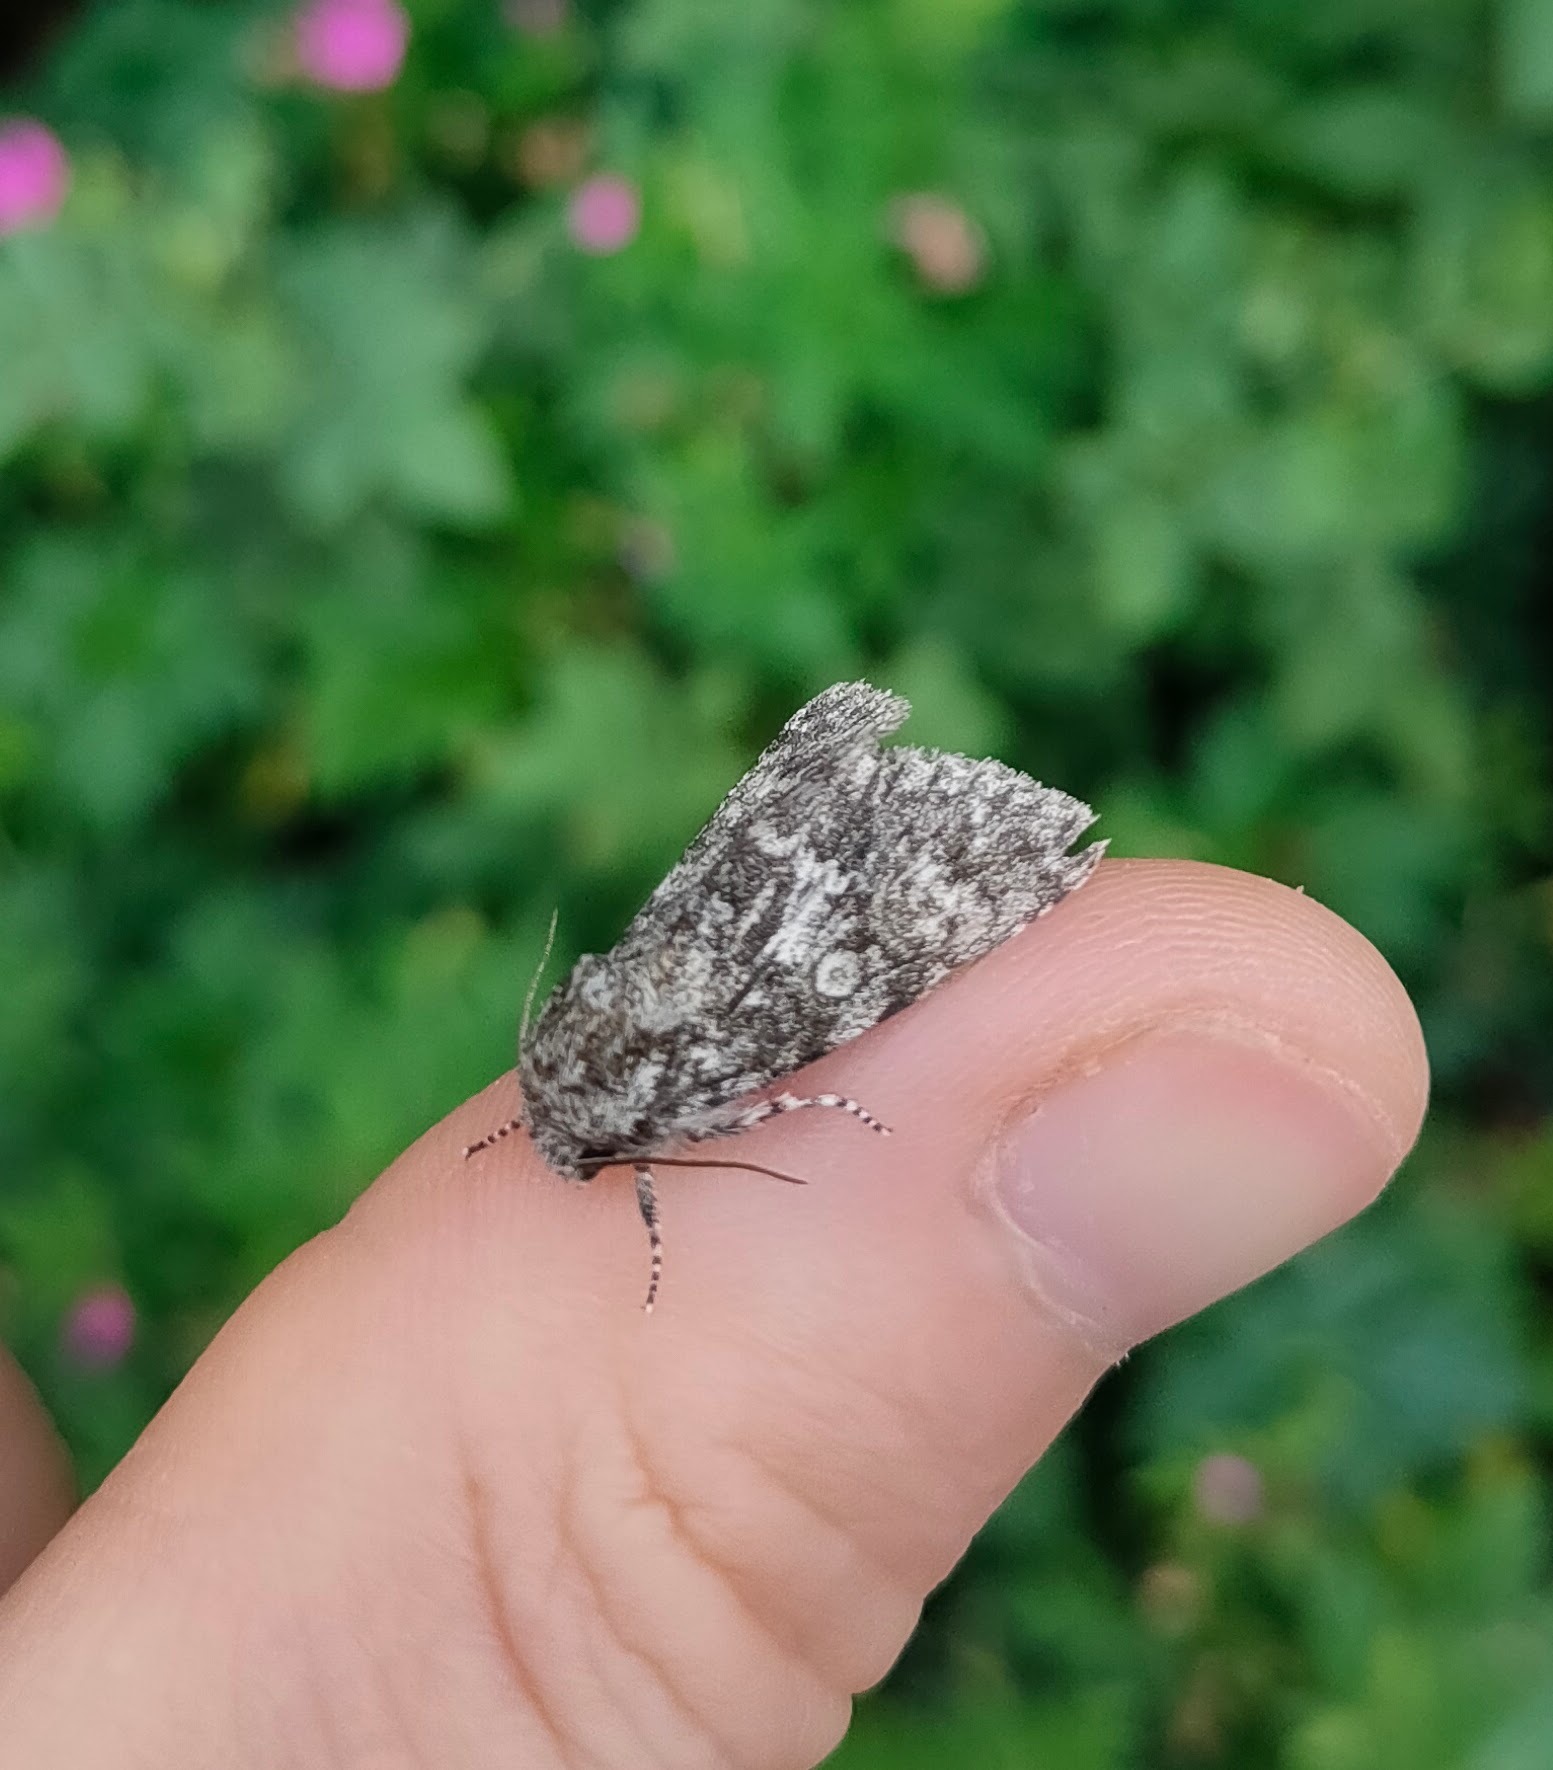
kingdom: Animalia
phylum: Arthropoda
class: Insecta
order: Lepidoptera
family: Noctuidae
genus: Acronicta
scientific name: Acronicta megacephala
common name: Poplar grey
